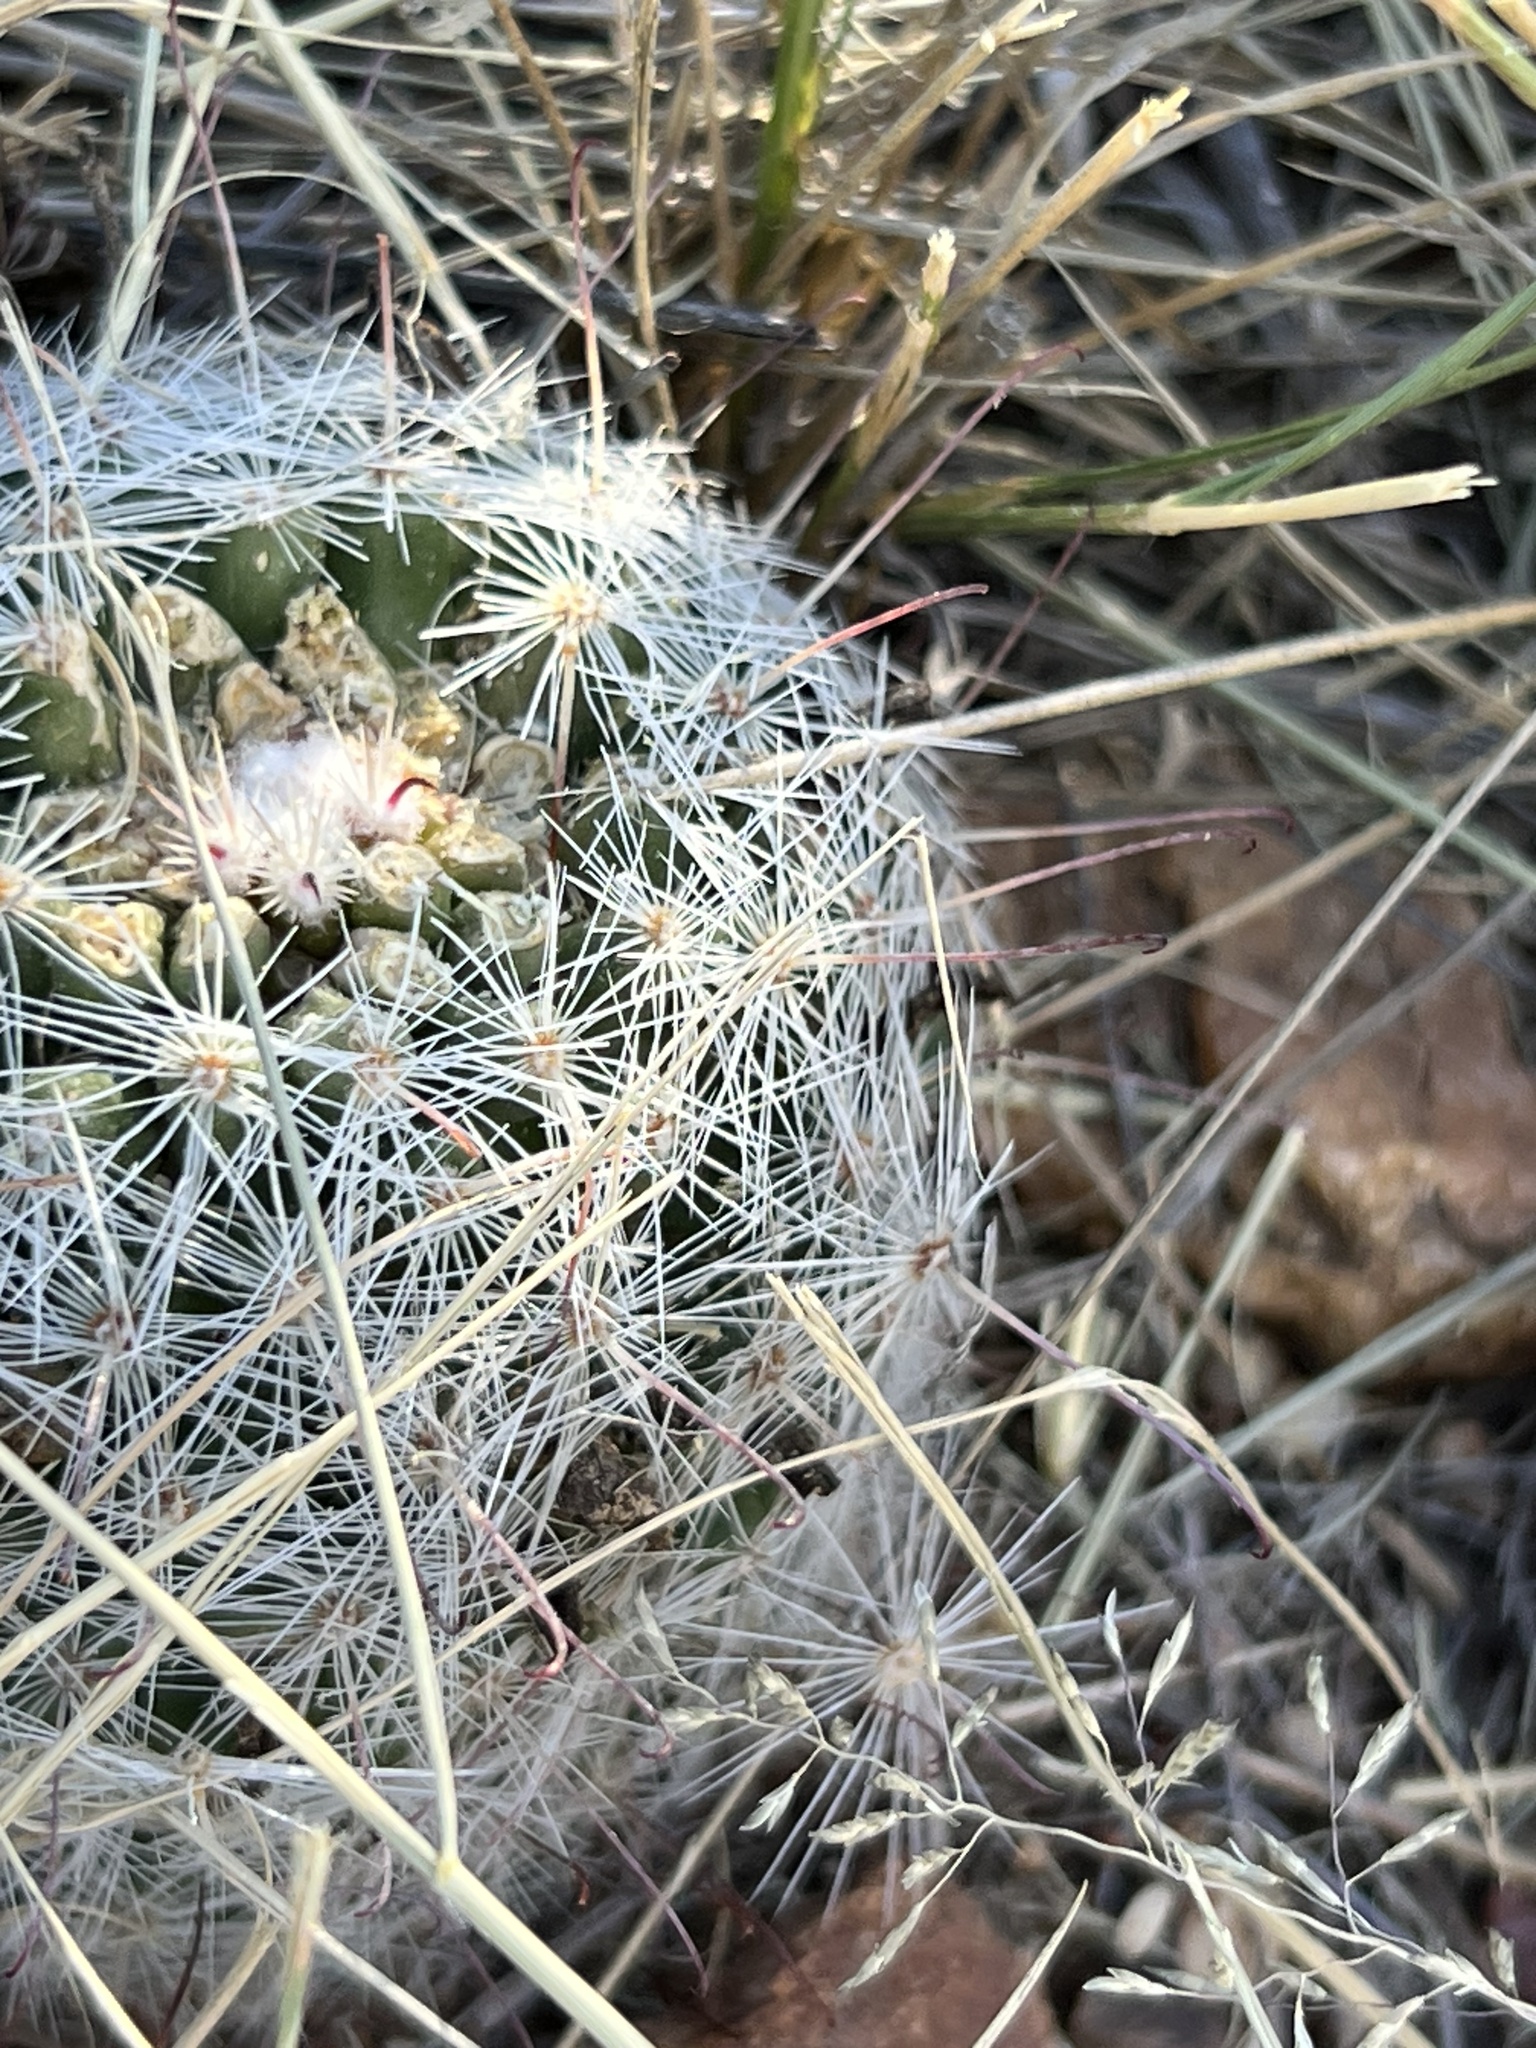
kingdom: Plantae
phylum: Tracheophyta
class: Magnoliopsida
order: Caryophyllales
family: Cactaceae
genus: Cochemiea
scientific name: Cochemiea grahamii
